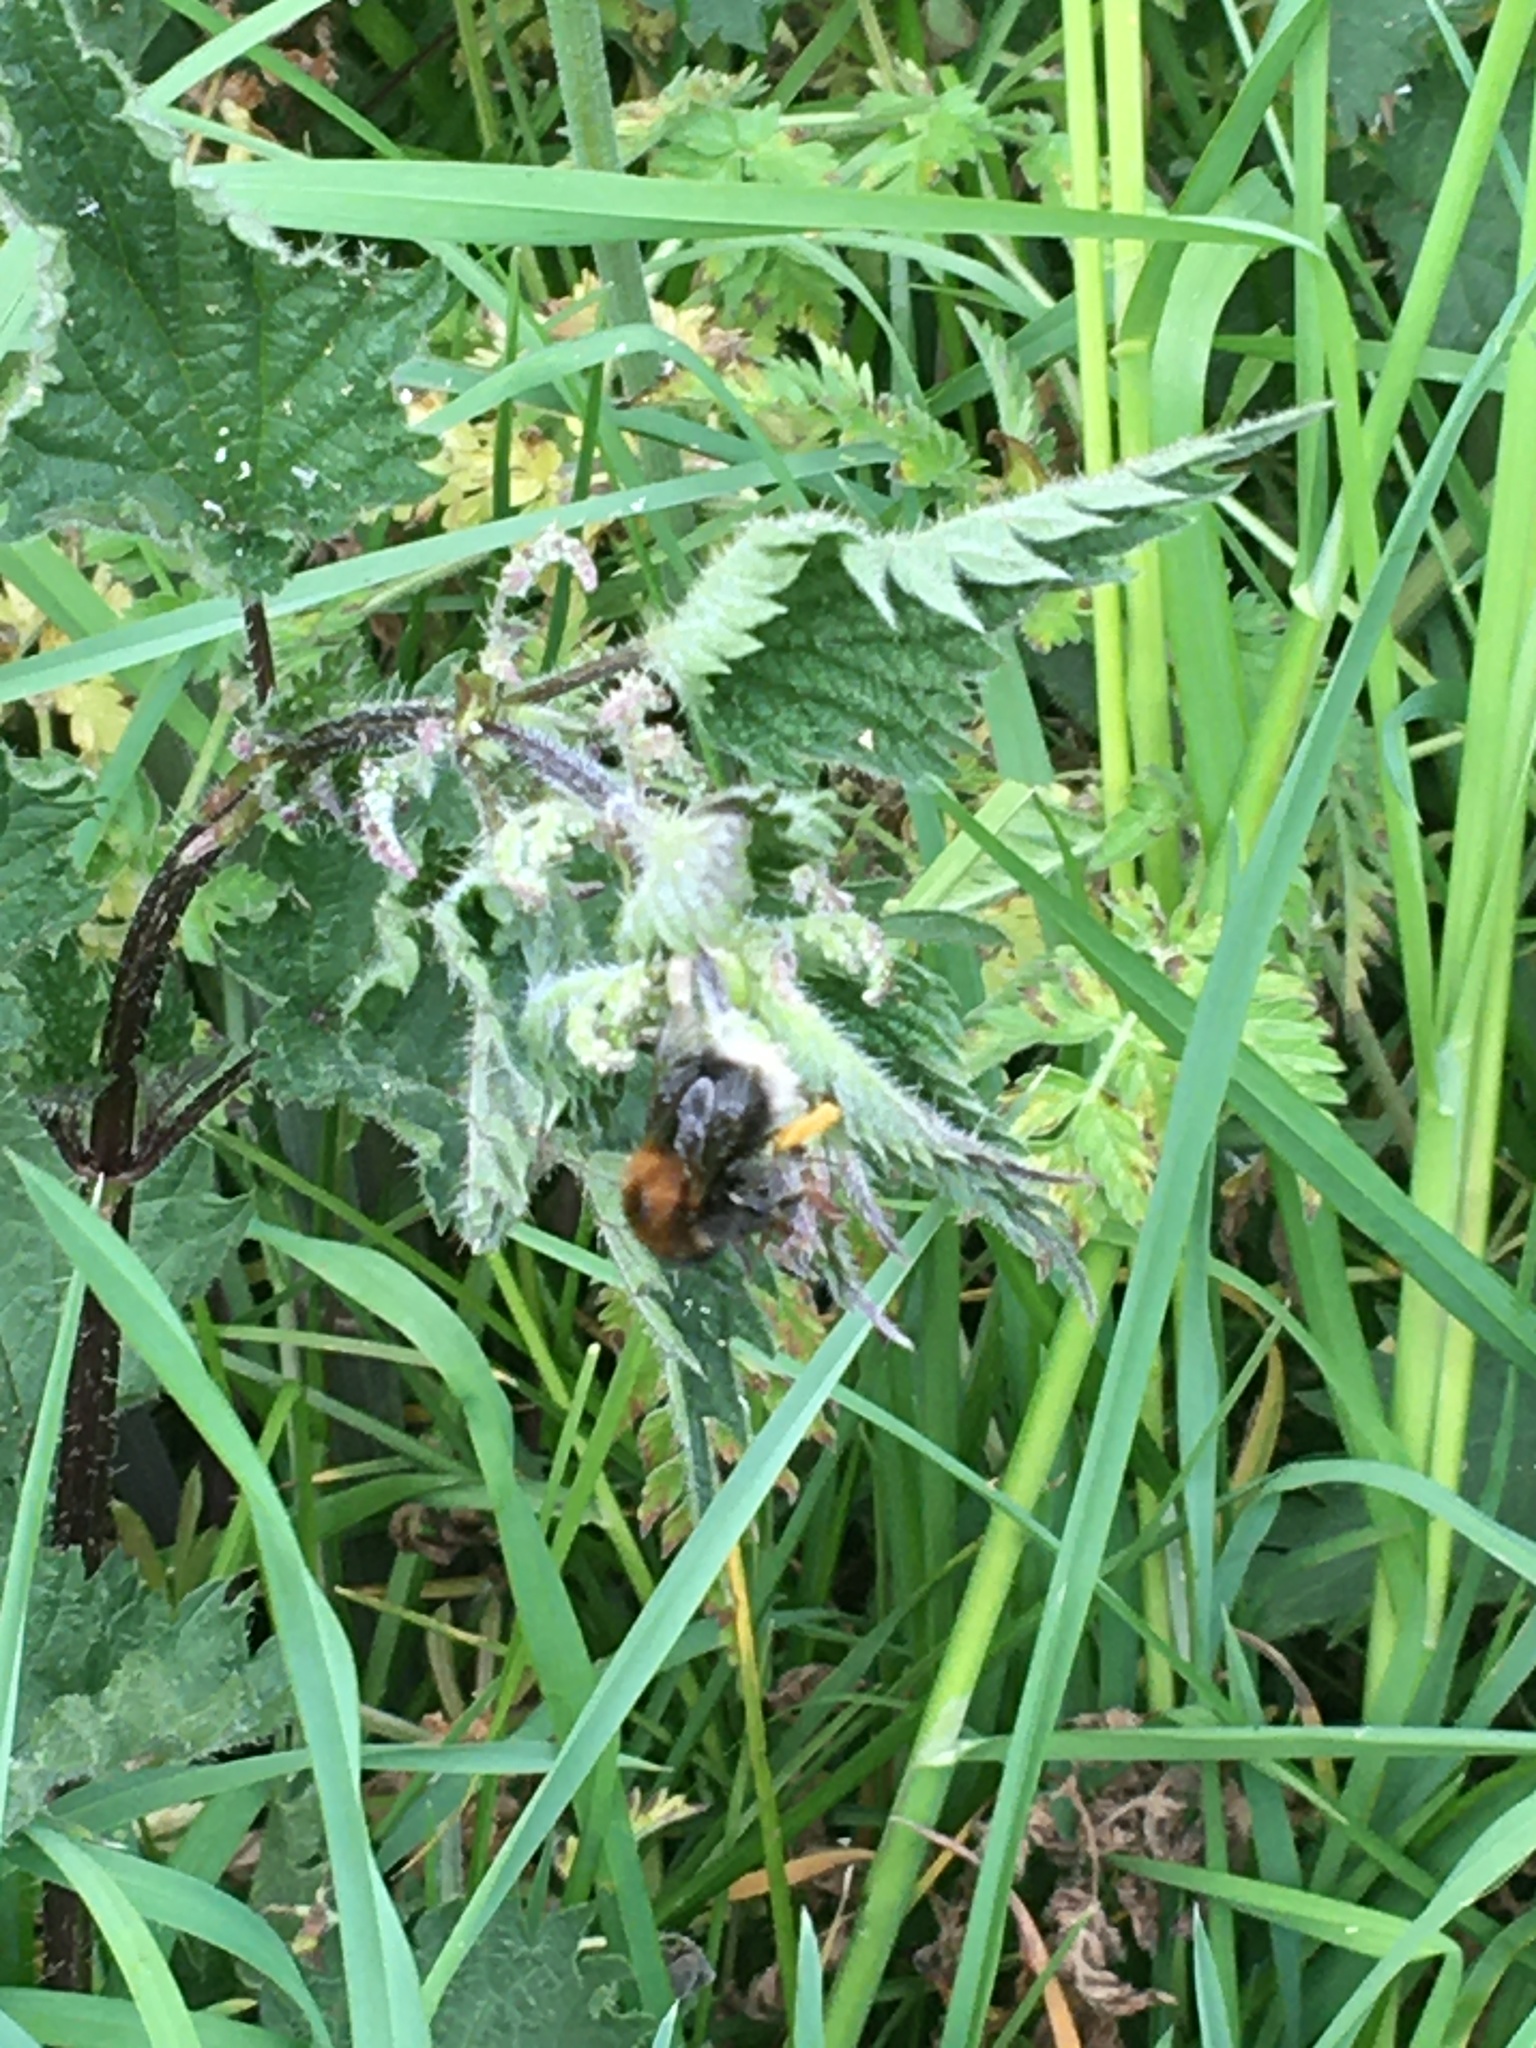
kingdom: Animalia
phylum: Arthropoda
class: Insecta
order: Hymenoptera
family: Apidae
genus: Bombus
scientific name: Bombus hypnorum
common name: New garden bumblebee
